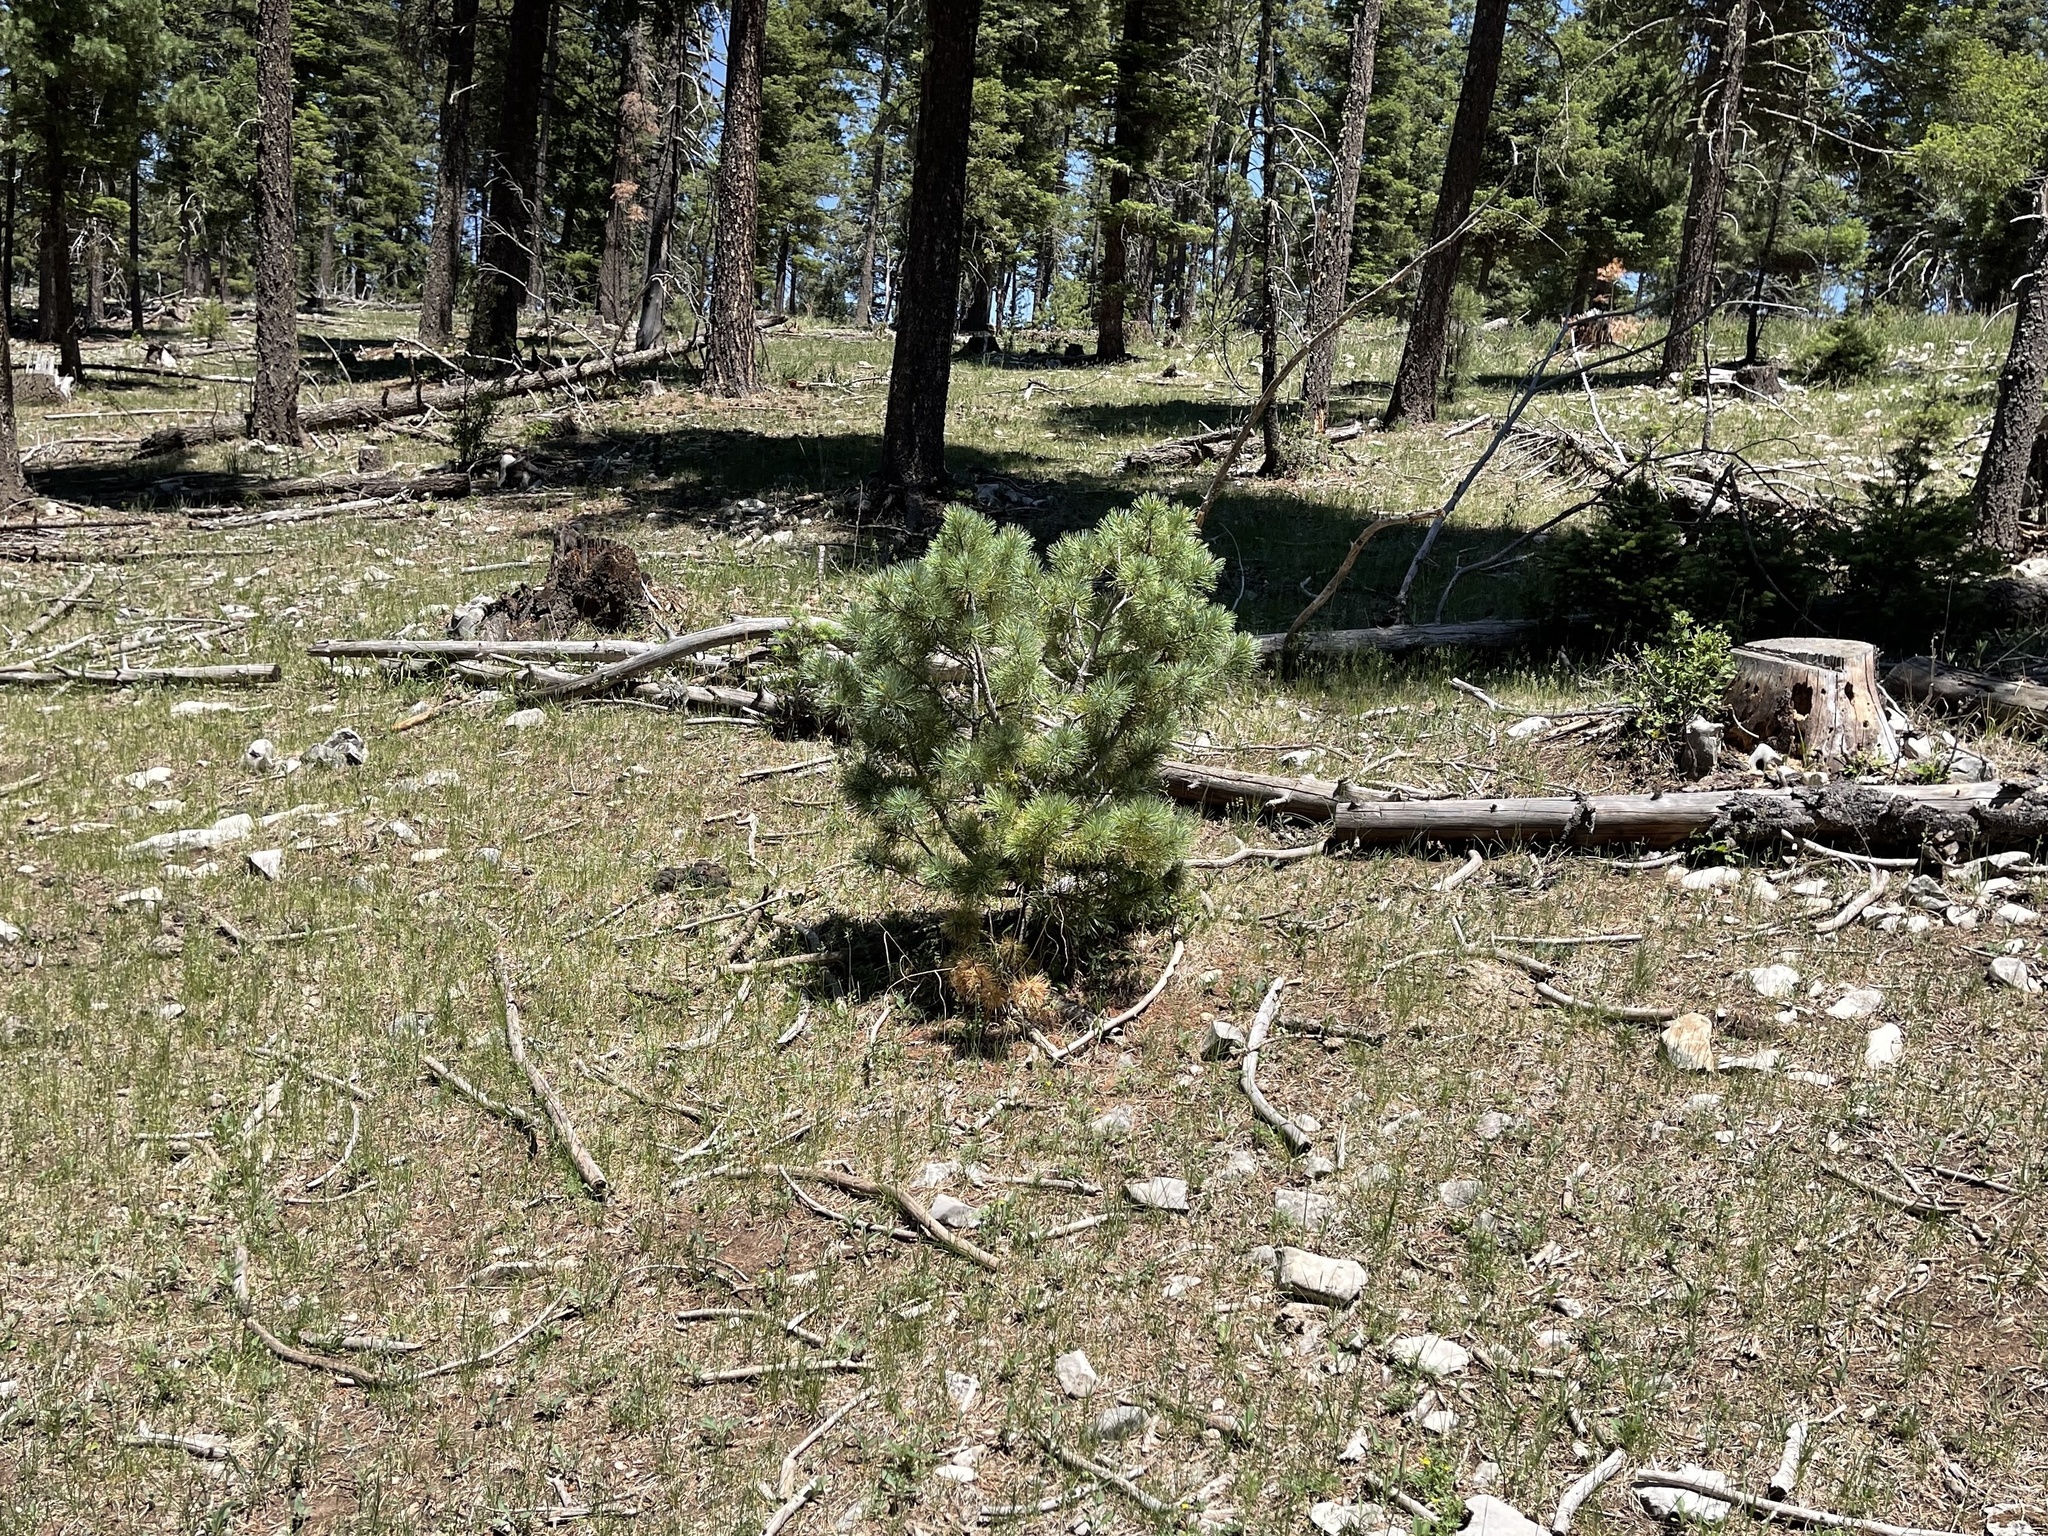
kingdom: Plantae
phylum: Tracheophyta
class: Pinopsida
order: Pinales
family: Pinaceae
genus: Pinus
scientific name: Pinus strobiformis
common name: Southwestern white pine
